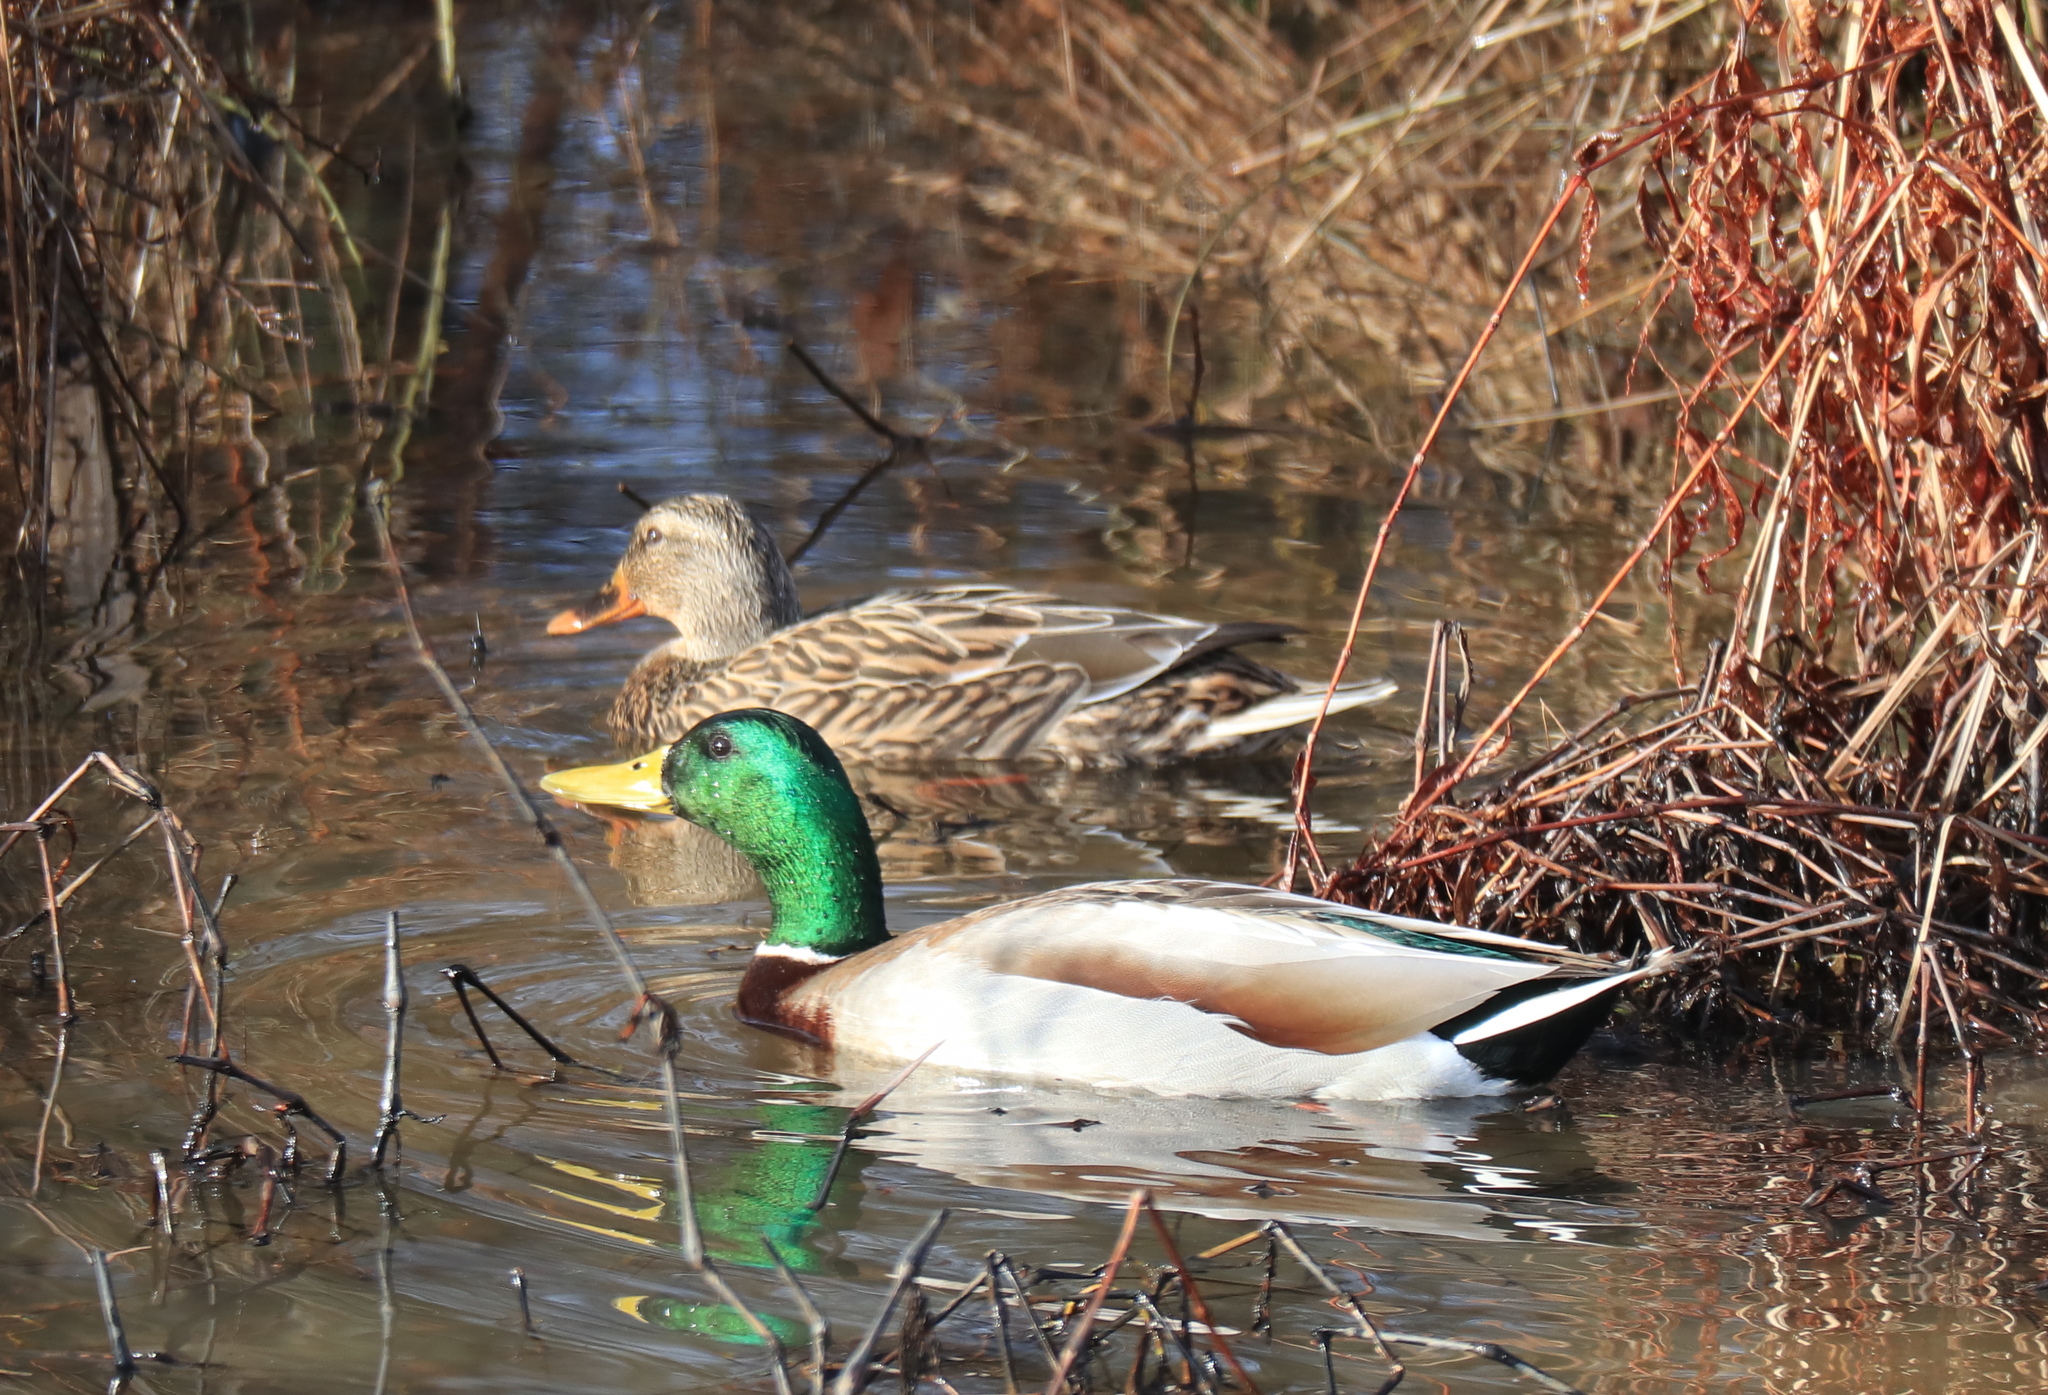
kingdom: Animalia
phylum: Chordata
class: Aves
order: Anseriformes
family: Anatidae
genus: Anas
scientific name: Anas platyrhynchos
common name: Mallard
